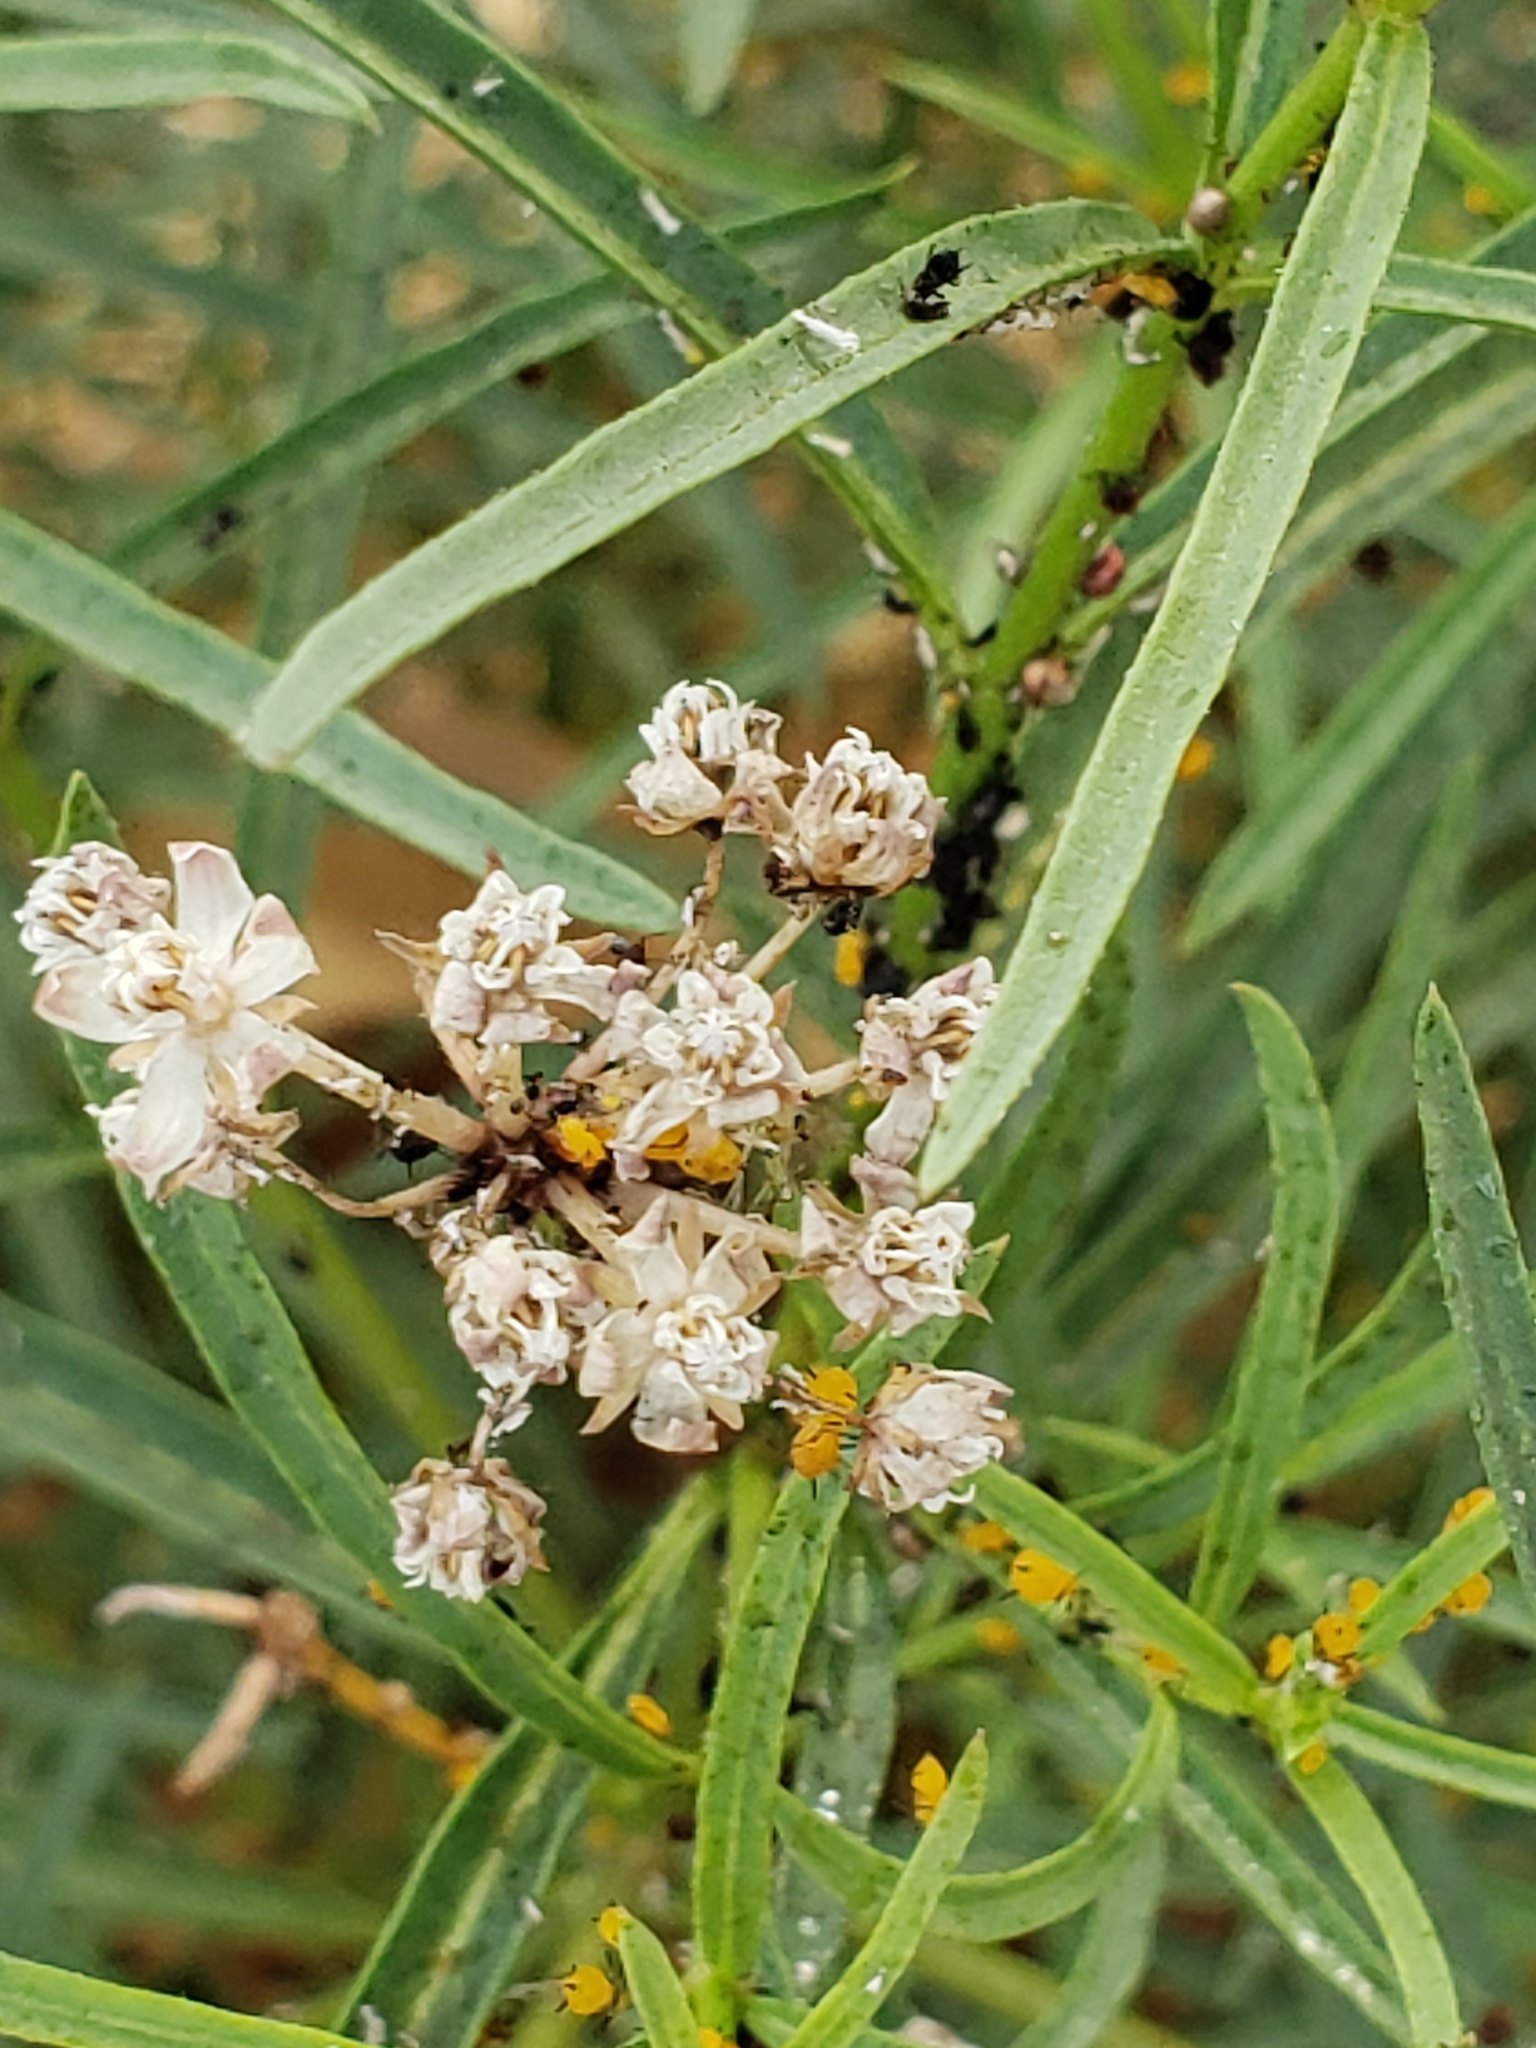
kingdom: Plantae
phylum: Tracheophyta
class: Magnoliopsida
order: Gentianales
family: Apocynaceae
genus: Asclepias
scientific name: Asclepias fascicularis
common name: Mexican milkweed
